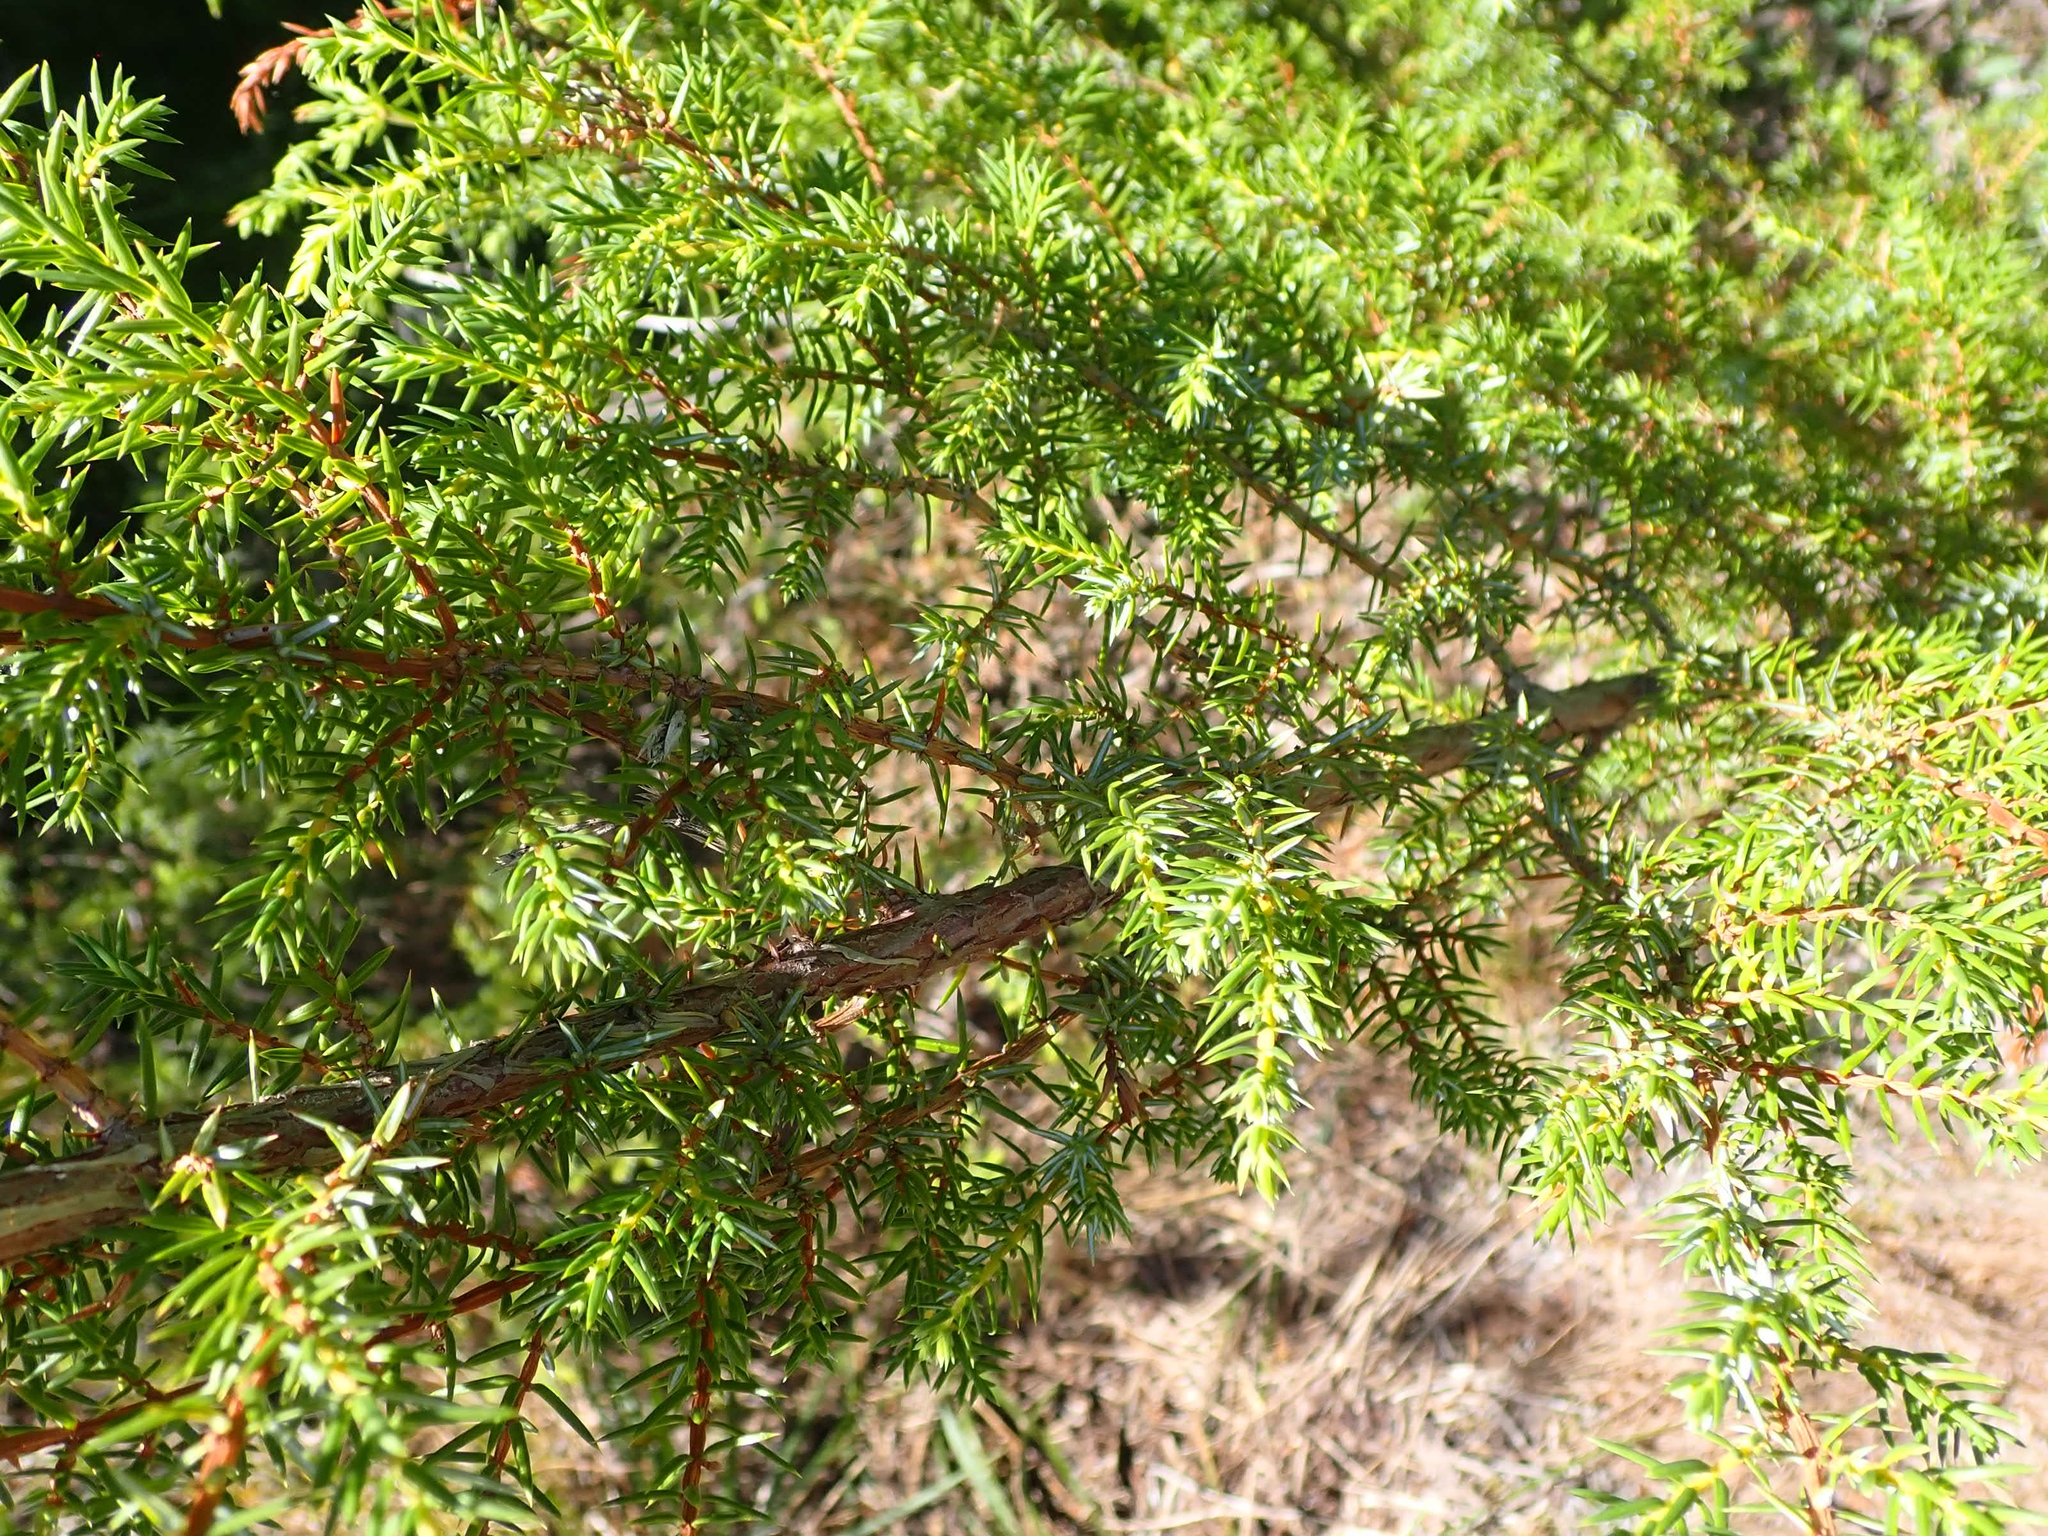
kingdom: Plantae
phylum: Tracheophyta
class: Pinopsida
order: Pinales
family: Cupressaceae
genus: Juniperus
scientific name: Juniperus communis
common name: Common juniper
